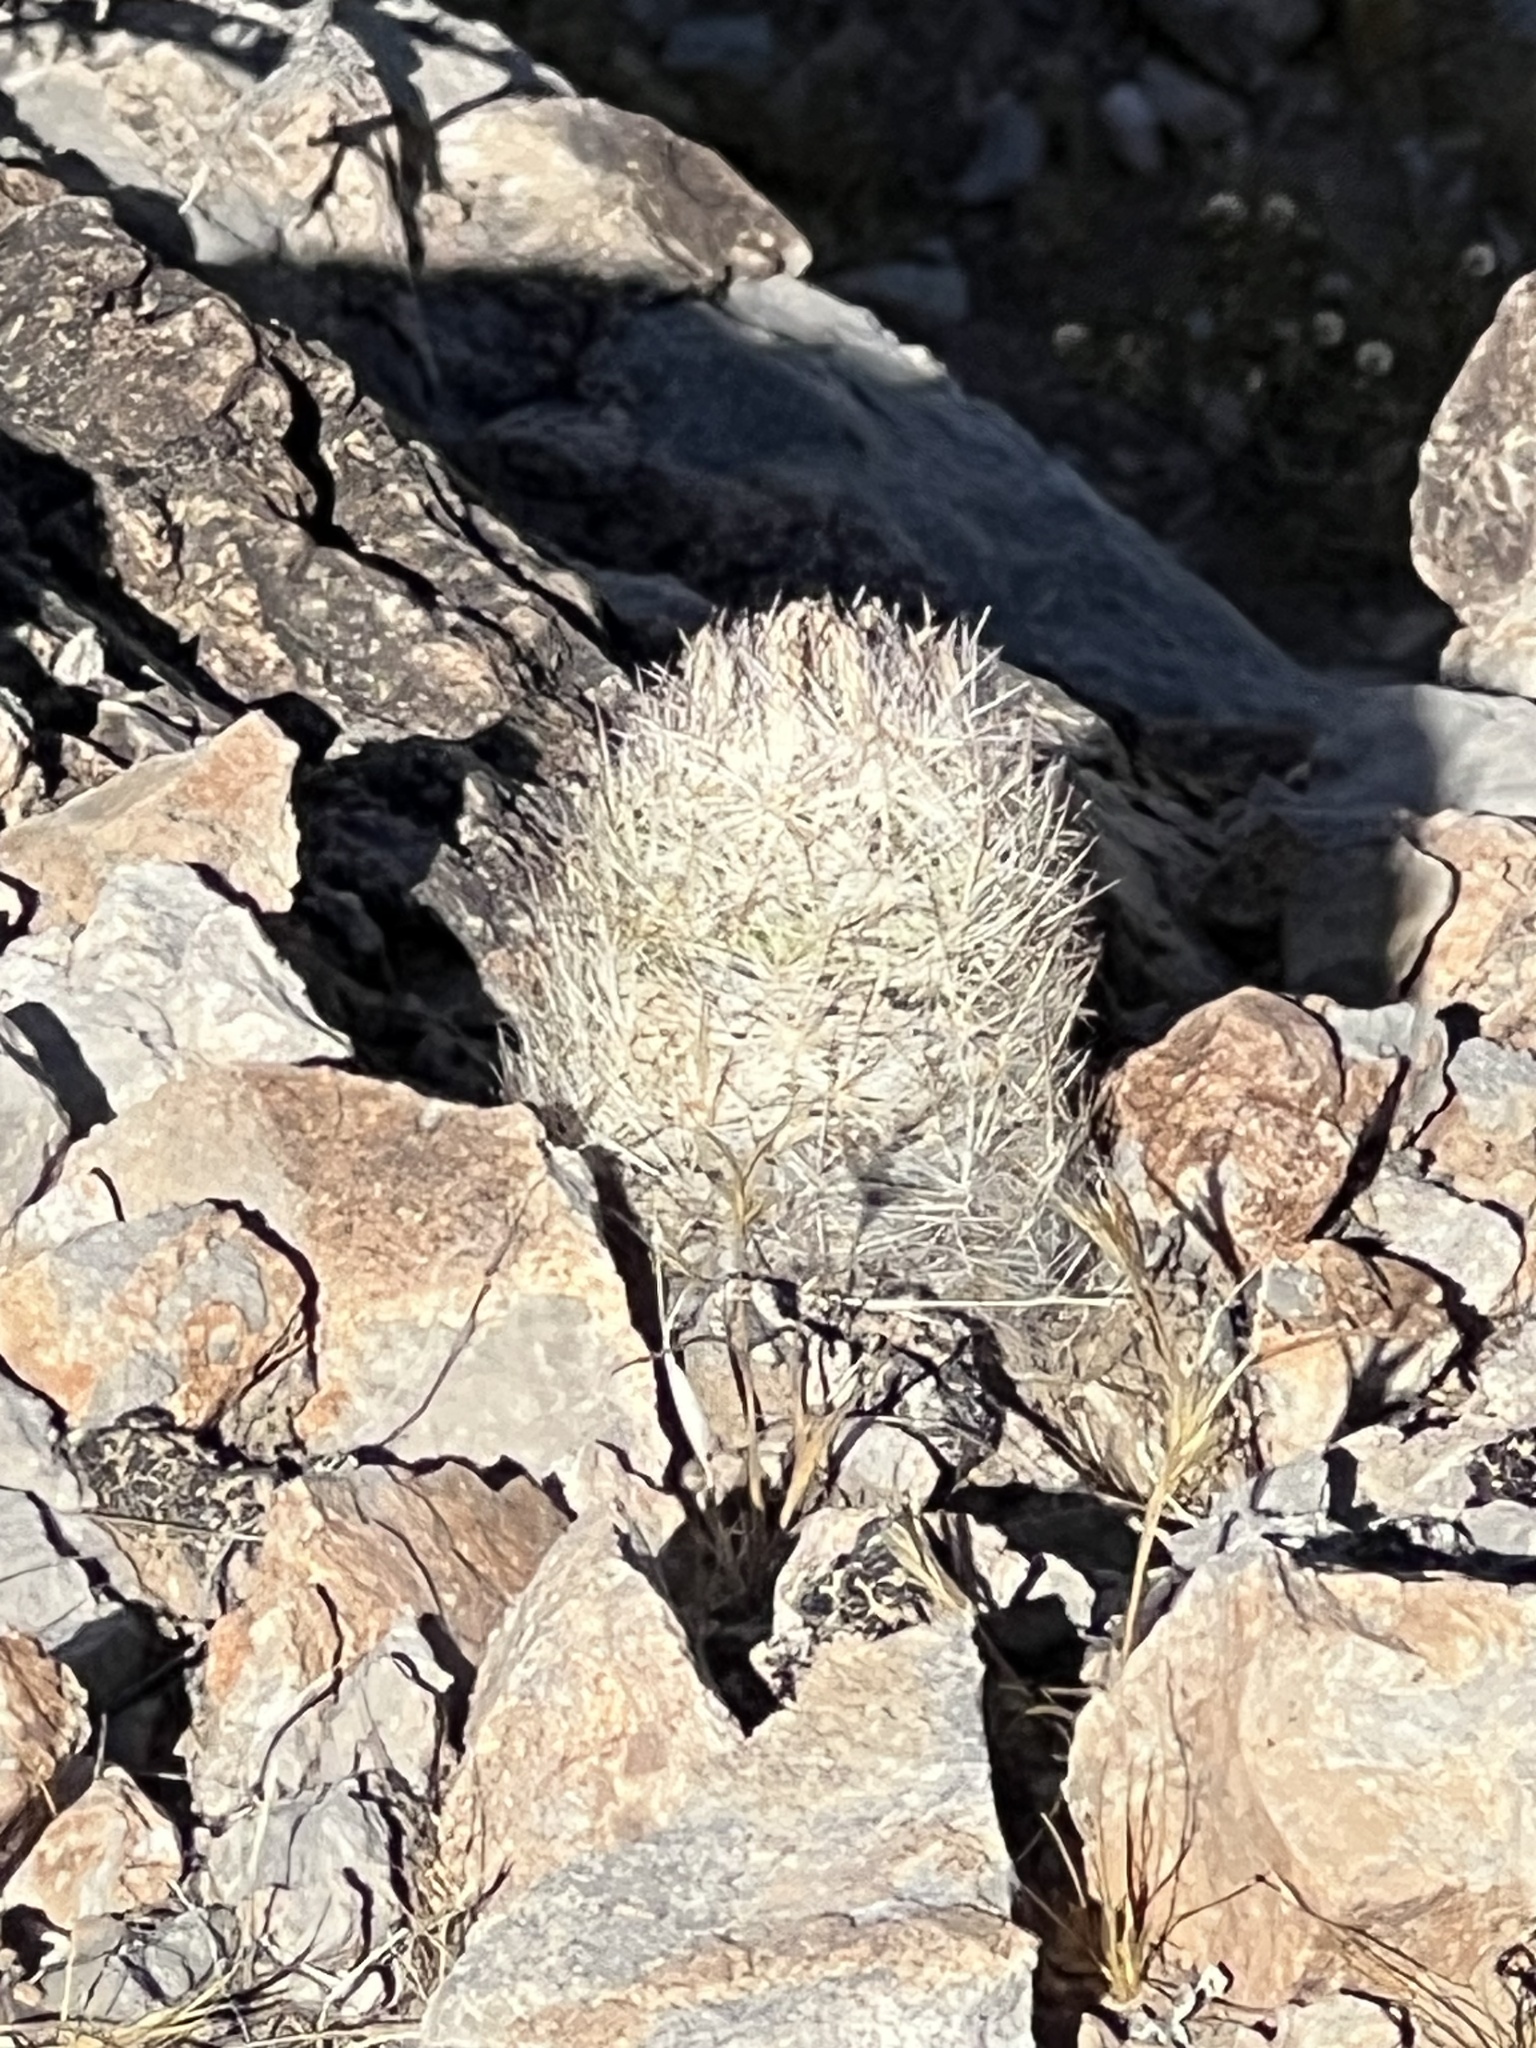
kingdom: Plantae
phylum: Tracheophyta
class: Magnoliopsida
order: Caryophyllales
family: Cactaceae
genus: Pelecyphora
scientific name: Pelecyphora dasyacantha
